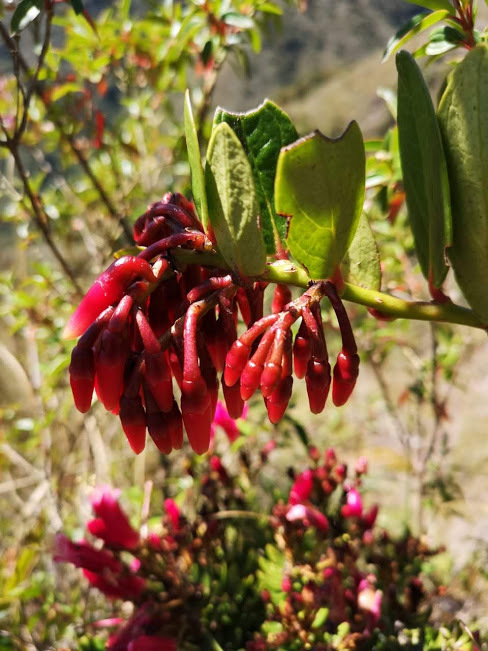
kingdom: Plantae
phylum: Tracheophyta
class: Magnoliopsida
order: Ericales
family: Ericaceae
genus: Macleania
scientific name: Macleania rupestris
